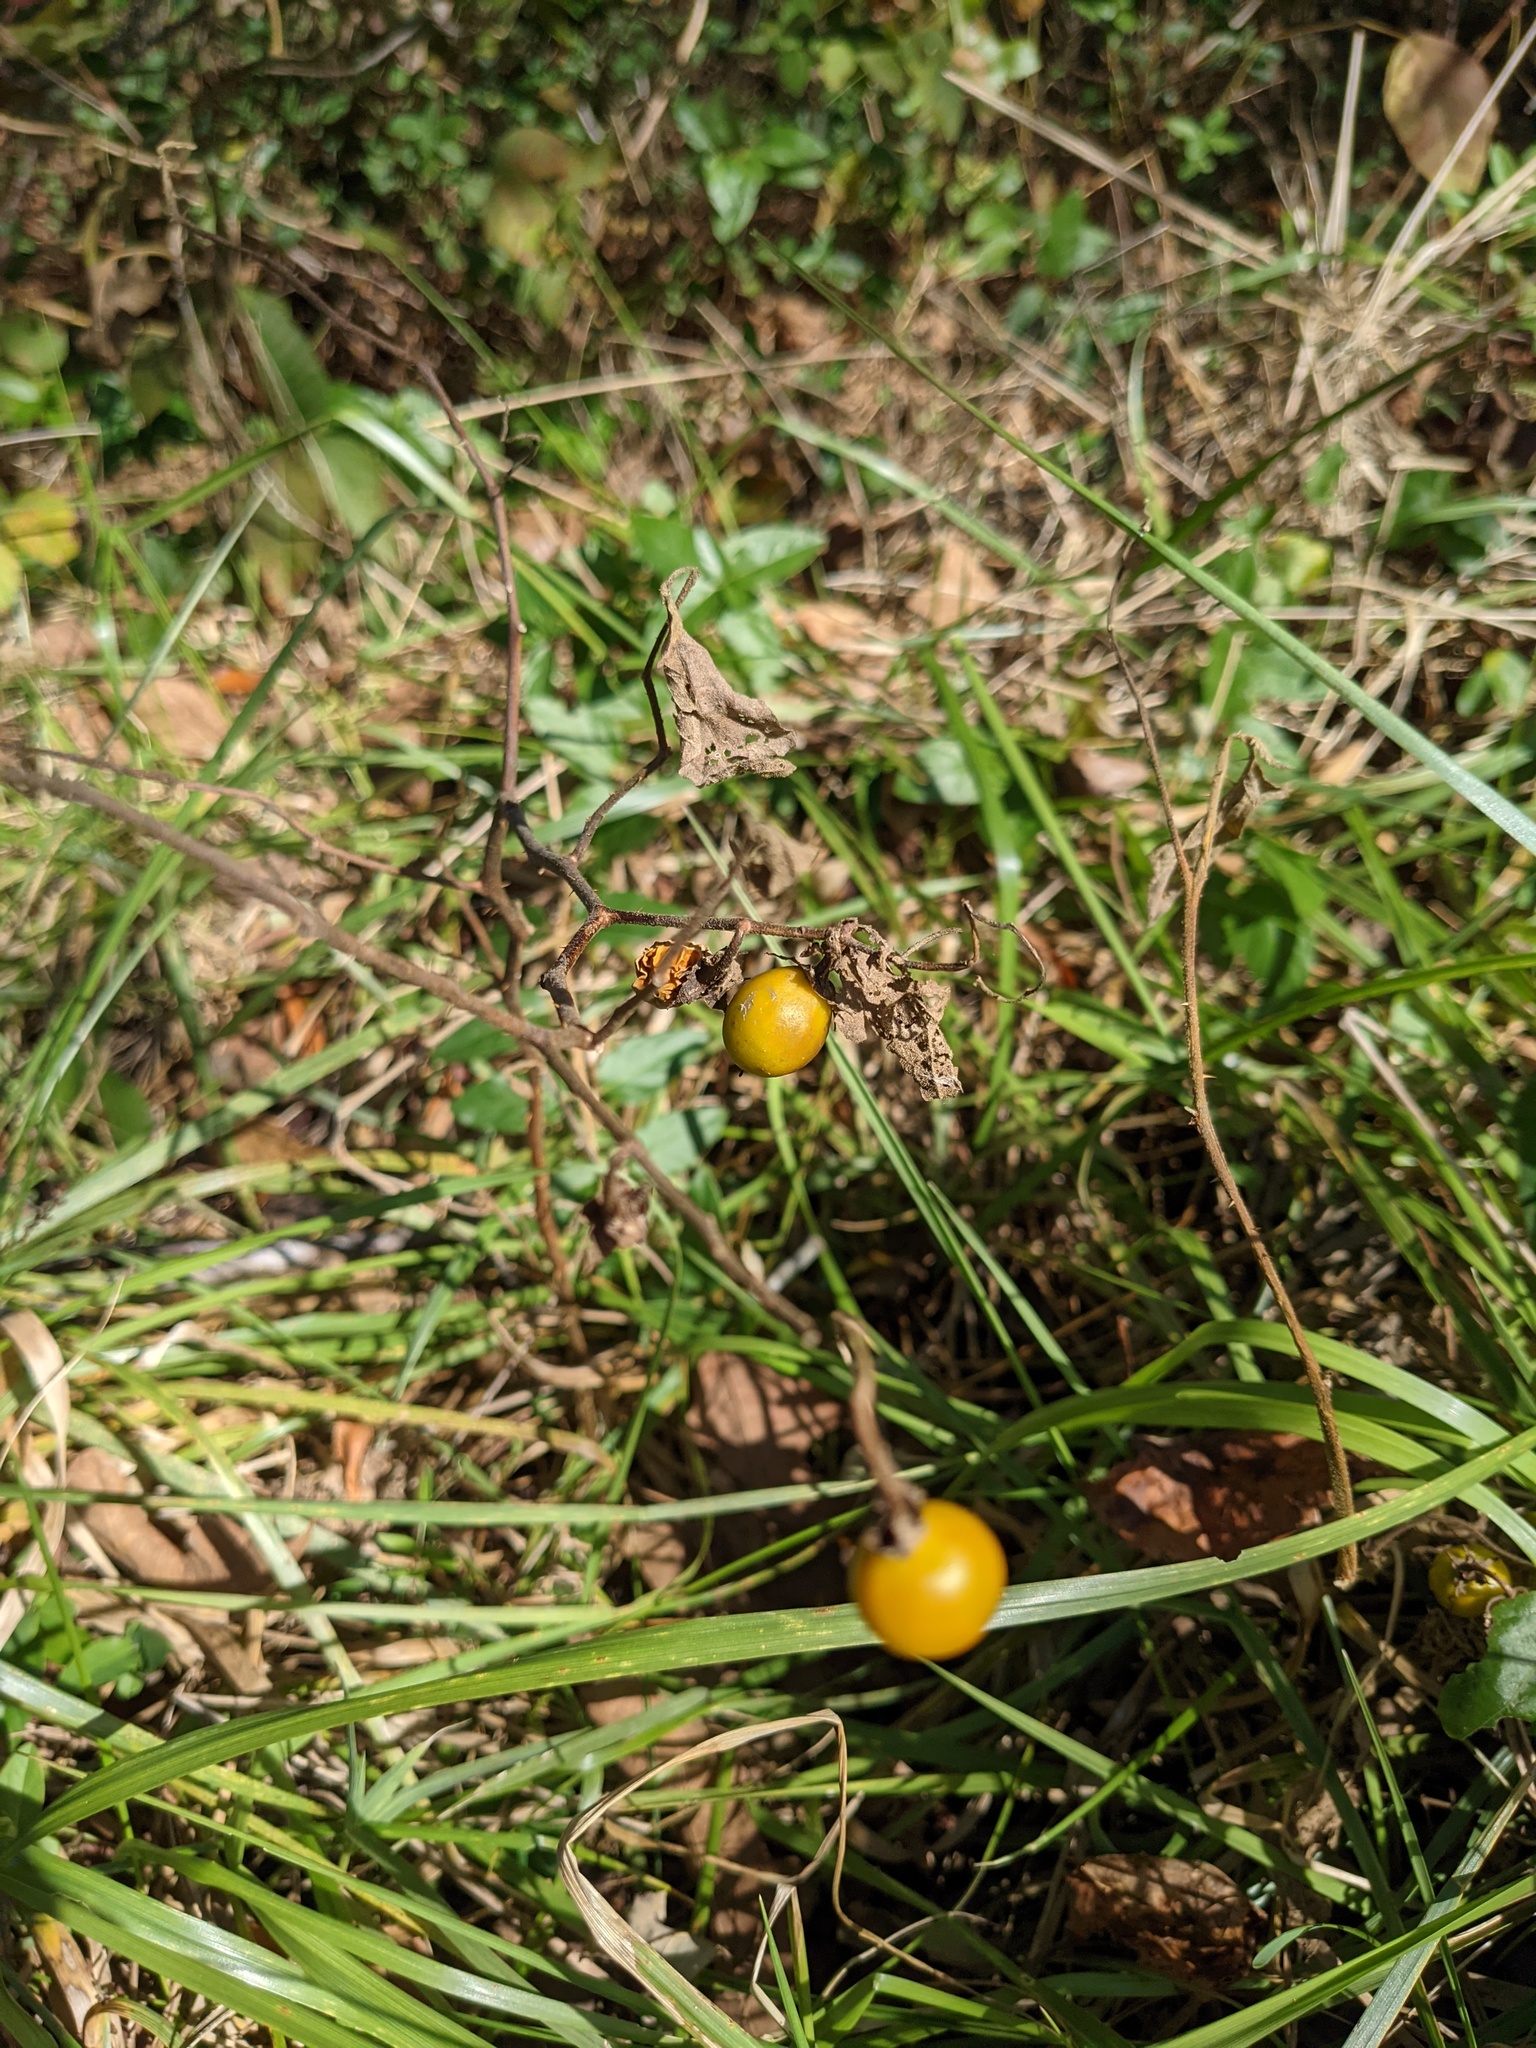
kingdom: Plantae
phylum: Tracheophyta
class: Magnoliopsida
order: Solanales
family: Solanaceae
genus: Solanum
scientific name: Solanum carolinense
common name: Horse-nettle
